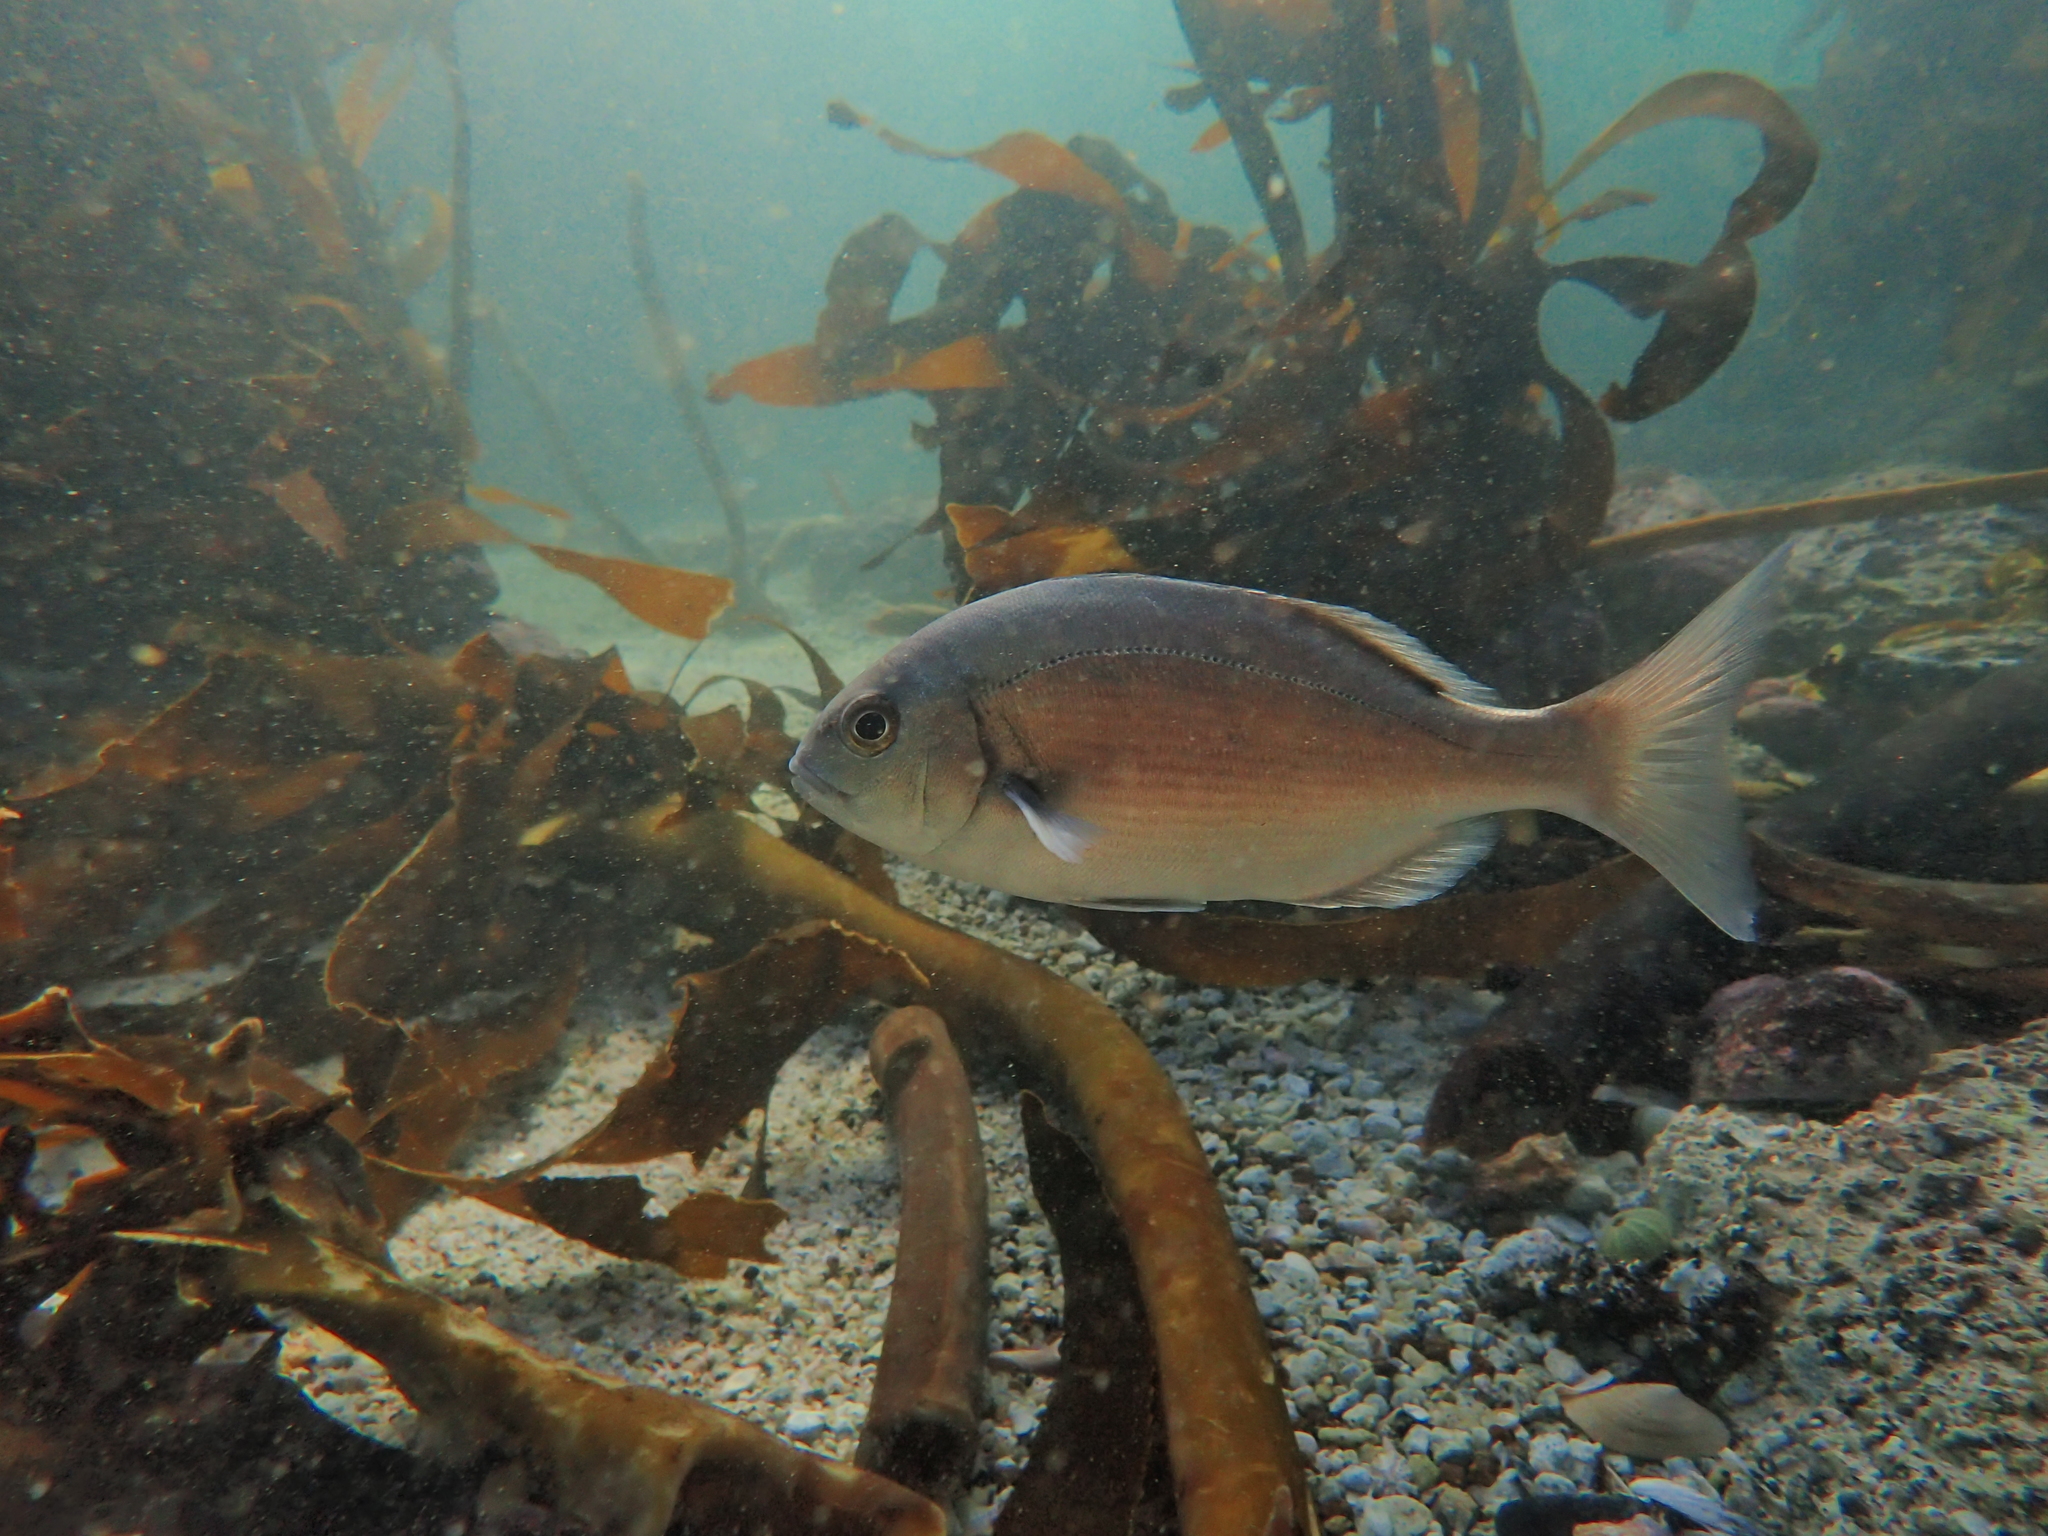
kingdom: Animalia
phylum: Chordata
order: Perciformes
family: Sparidae
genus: Pachymetopon
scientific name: Pachymetopon blochii
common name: Hottentot
